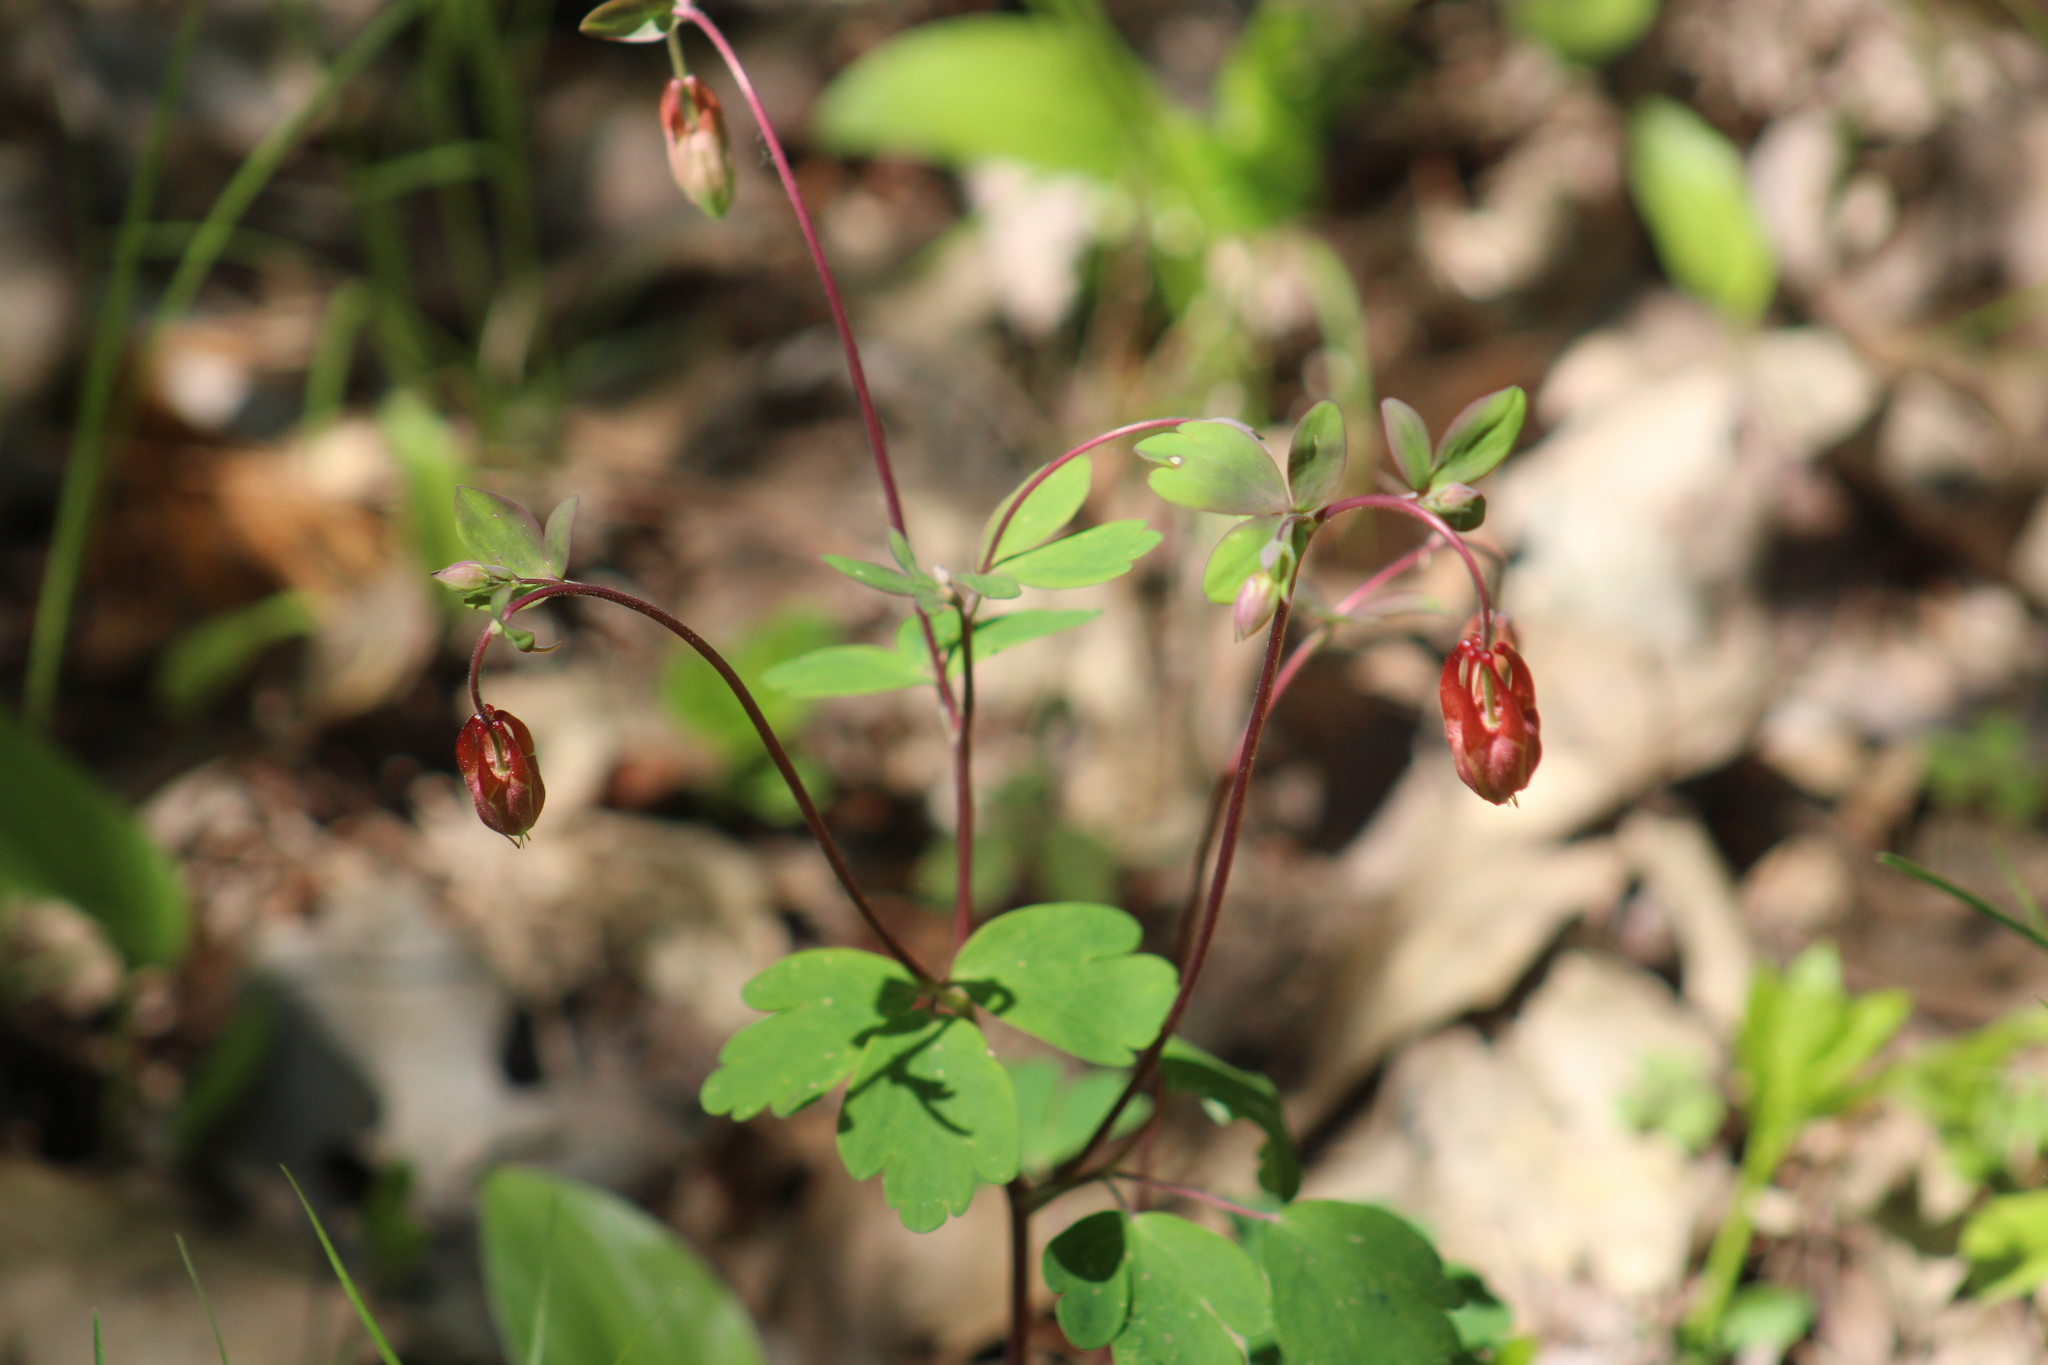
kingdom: Plantae
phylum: Tracheophyta
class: Magnoliopsida
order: Ranunculales
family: Ranunculaceae
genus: Aquilegia
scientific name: Aquilegia canadensis
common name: American columbine
